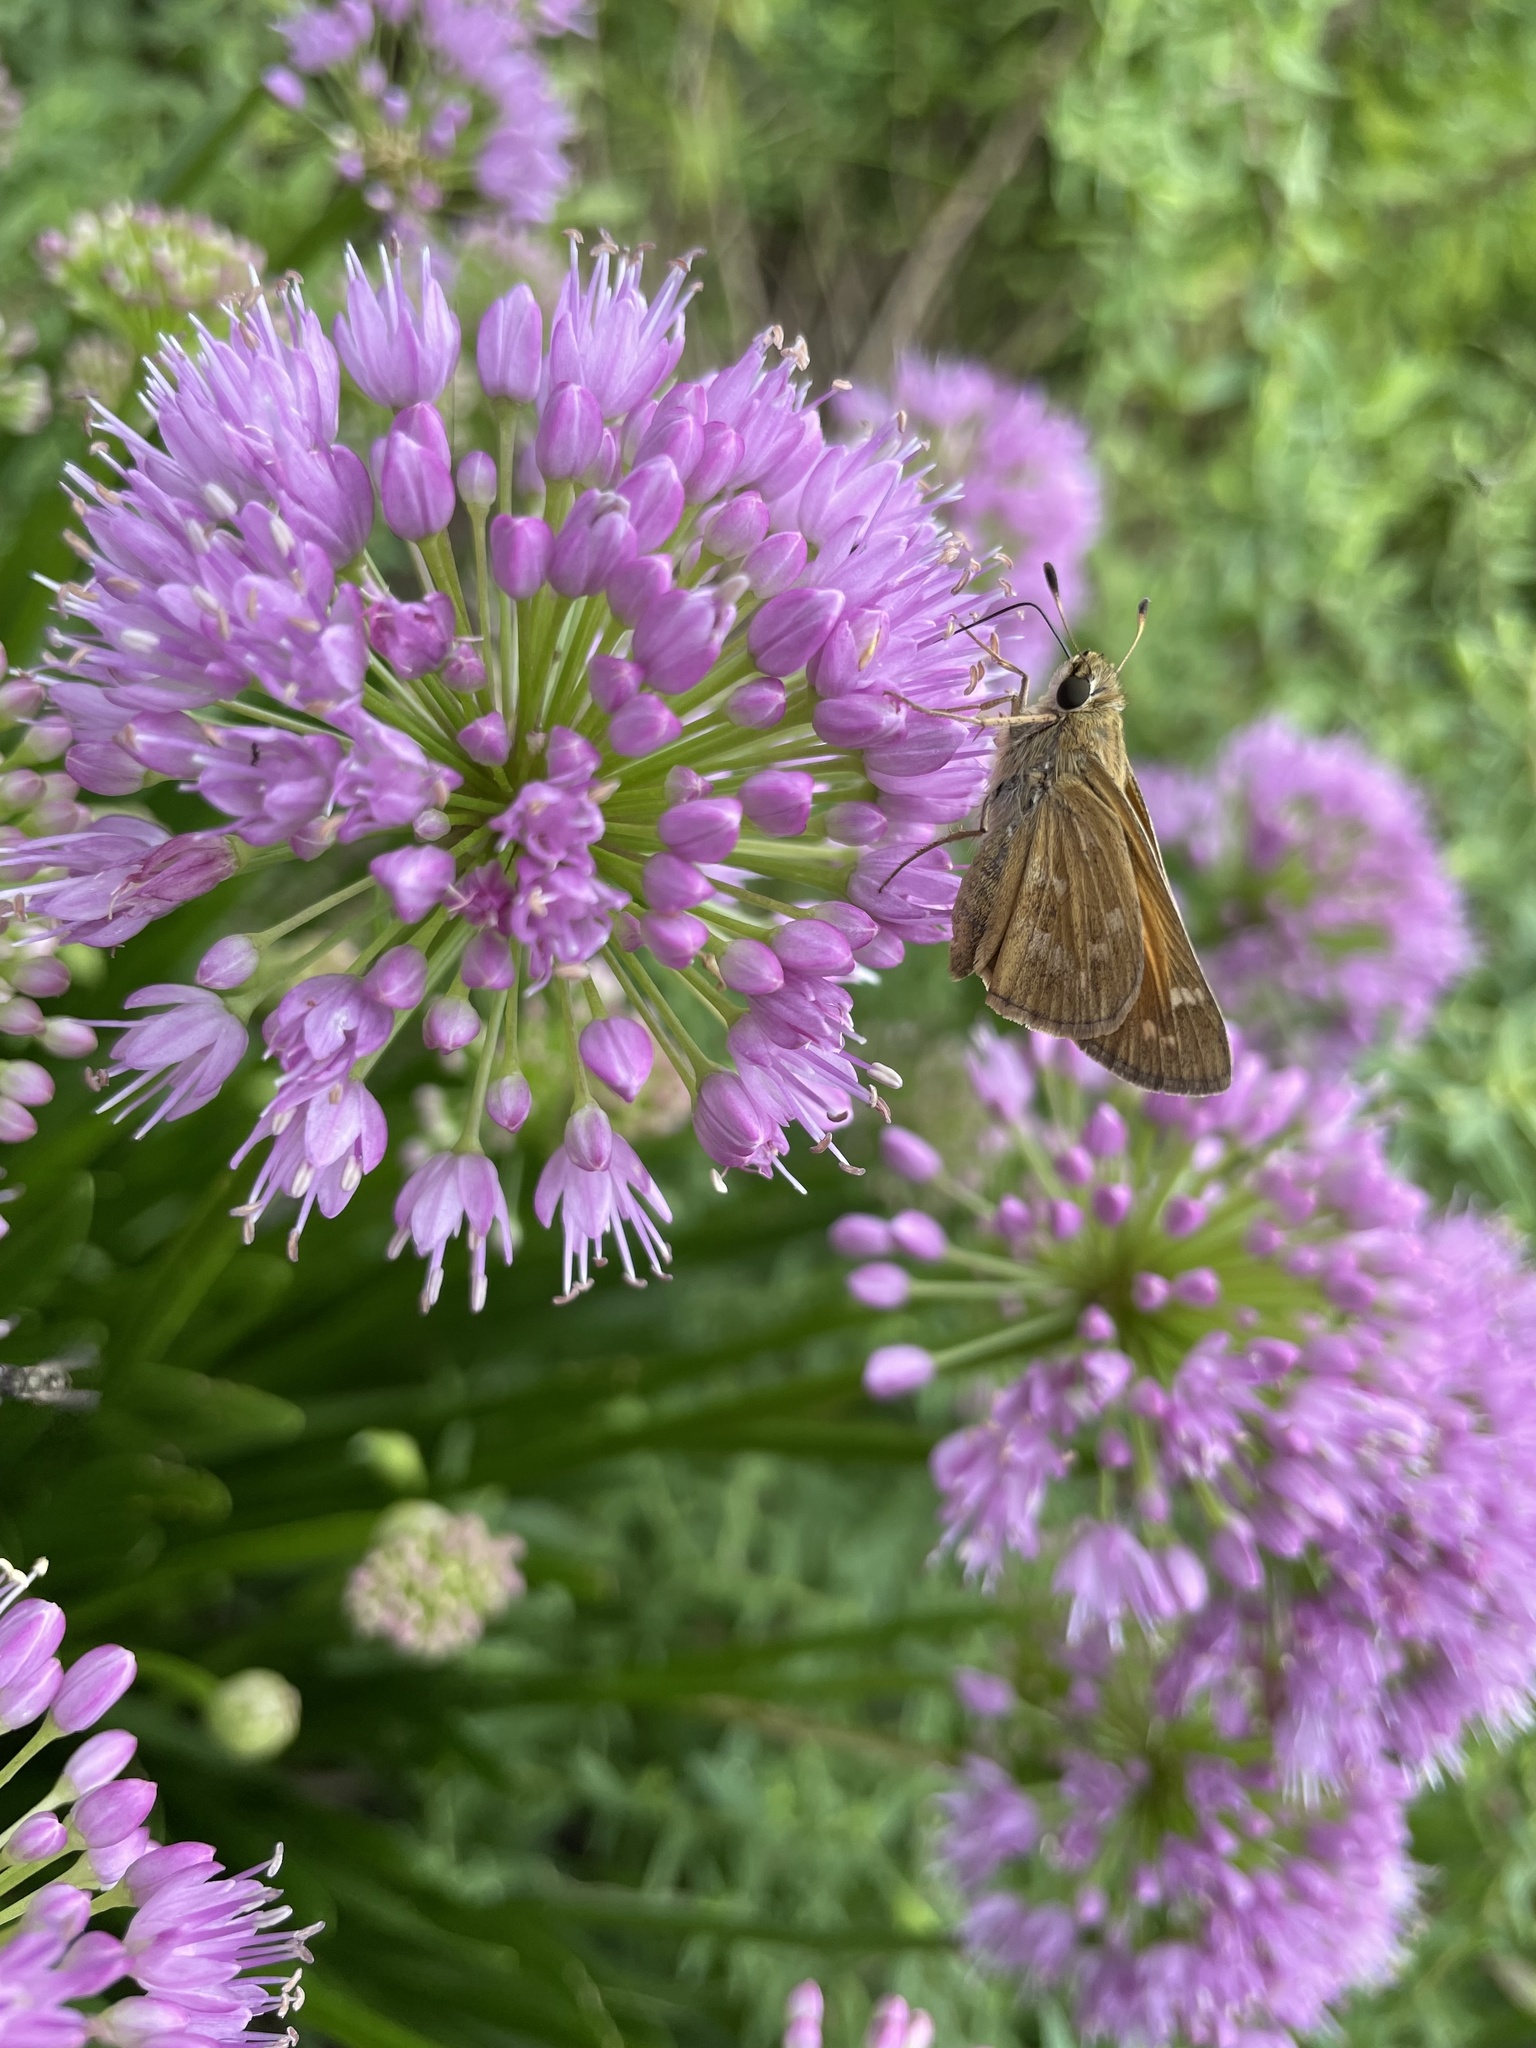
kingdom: Animalia
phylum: Arthropoda
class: Insecta
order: Lepidoptera
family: Hesperiidae
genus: Atalopedes
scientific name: Atalopedes
